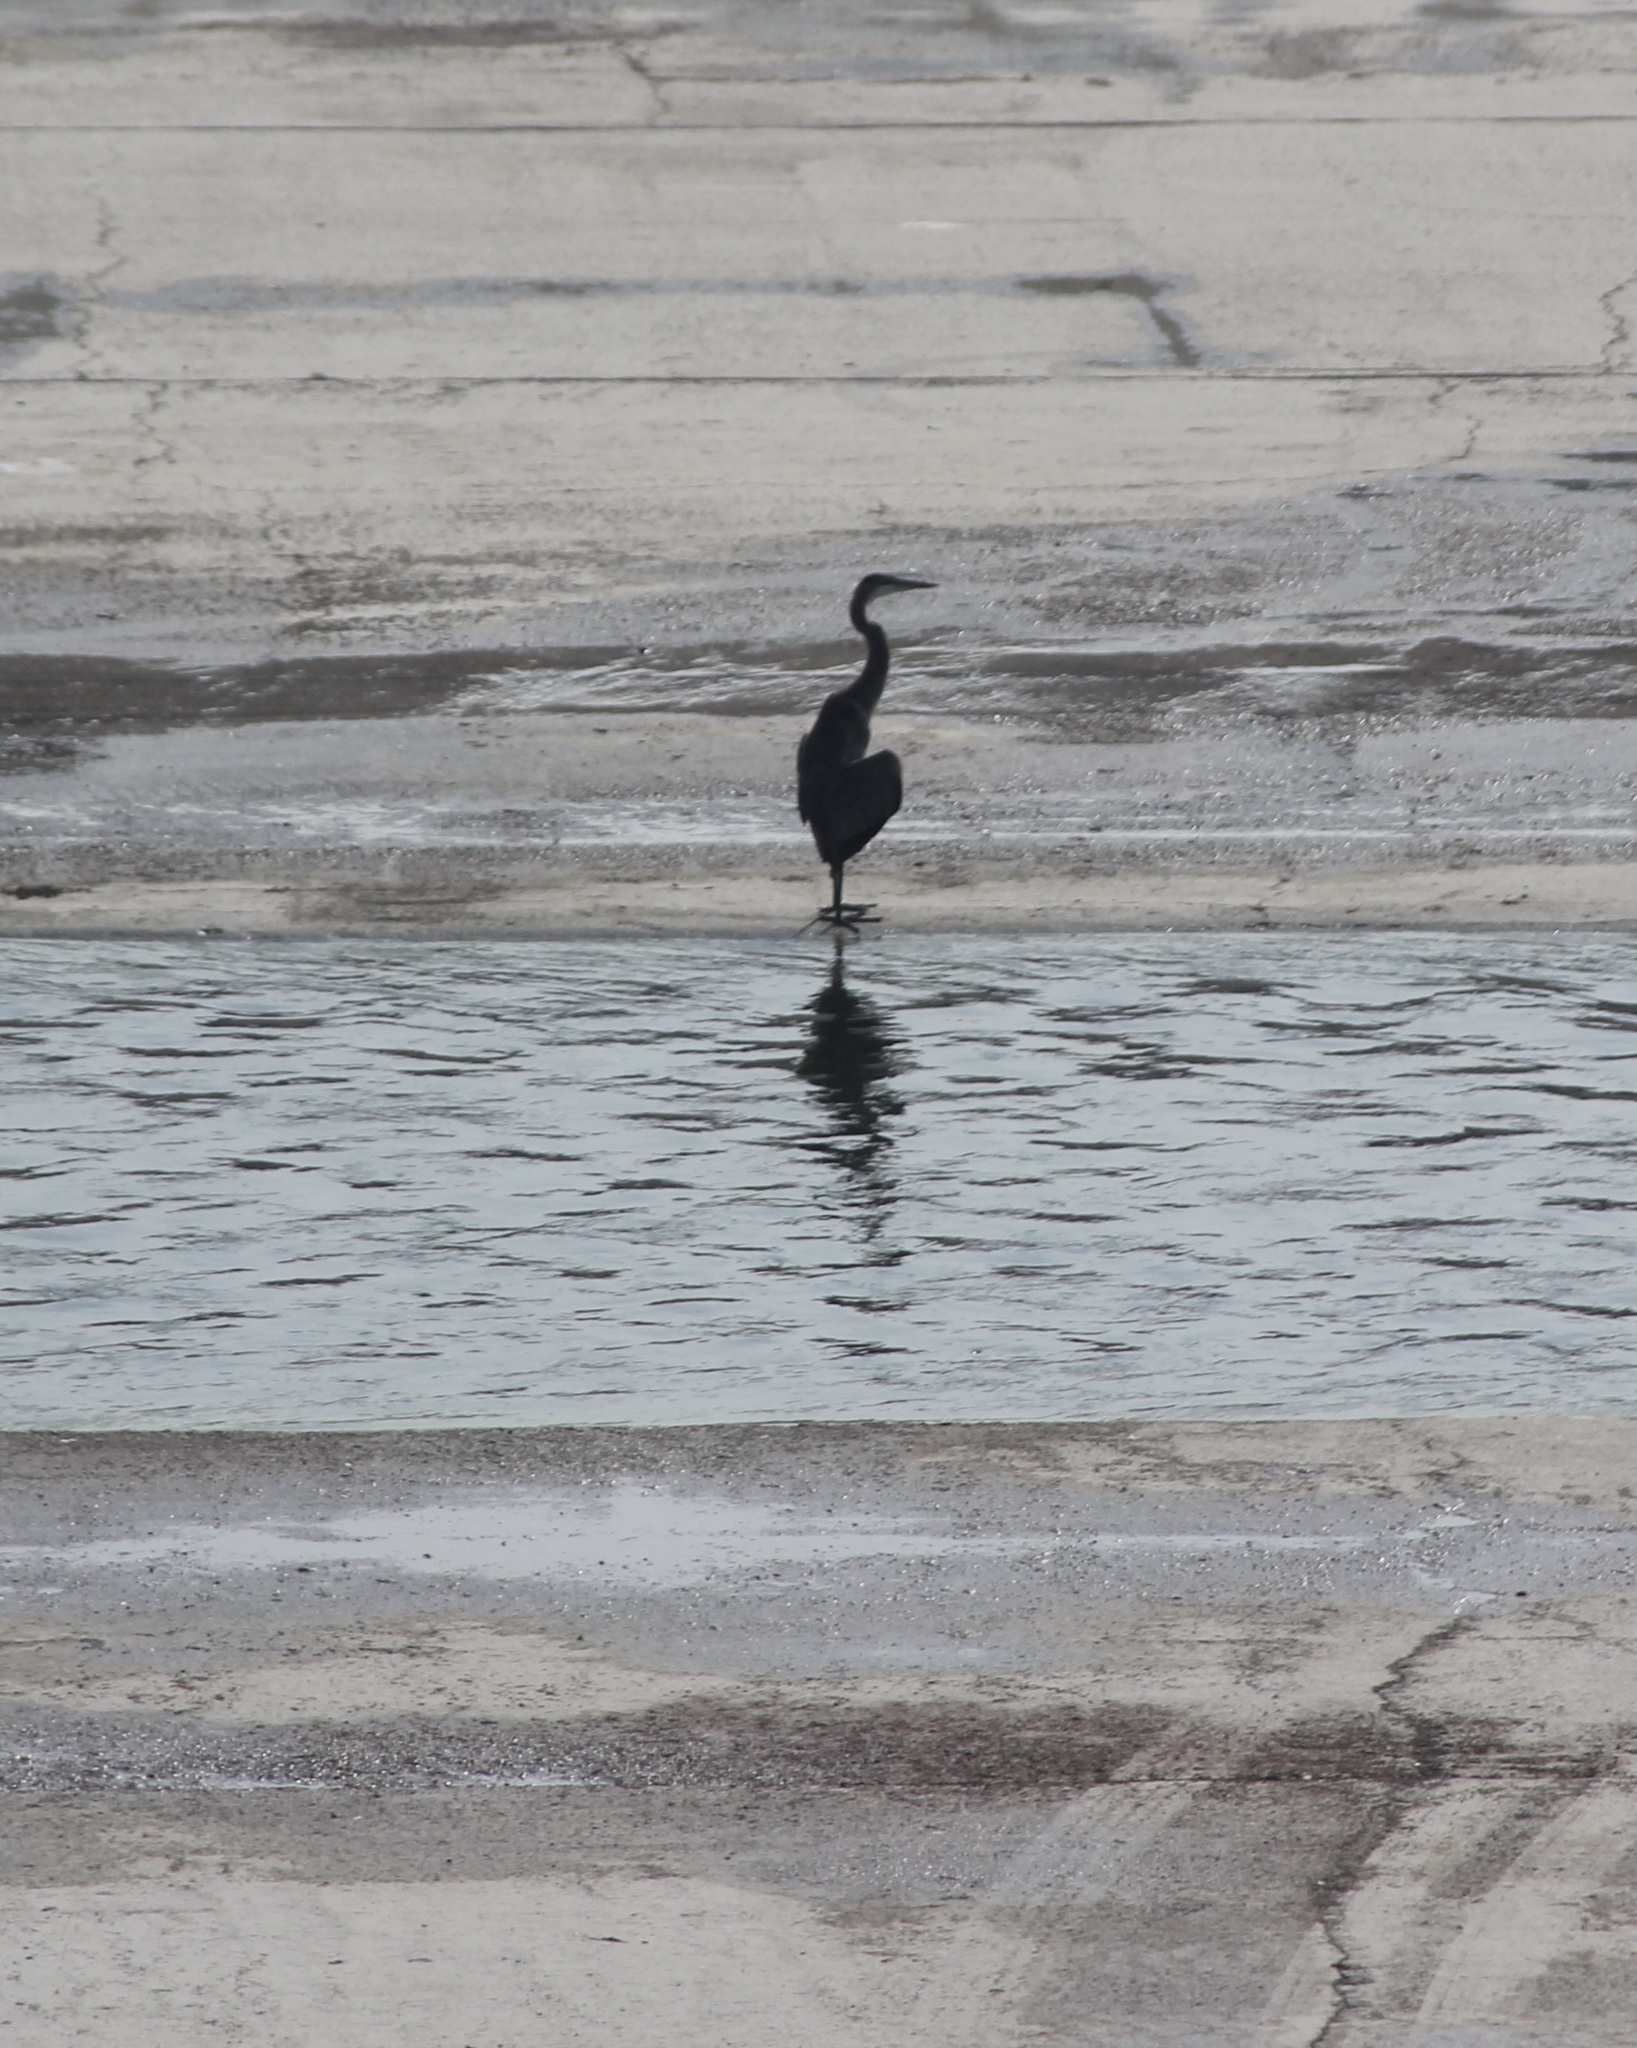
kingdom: Animalia
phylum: Chordata
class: Aves
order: Pelecaniformes
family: Ardeidae
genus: Ardea
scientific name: Ardea herodias
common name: Great blue heron
